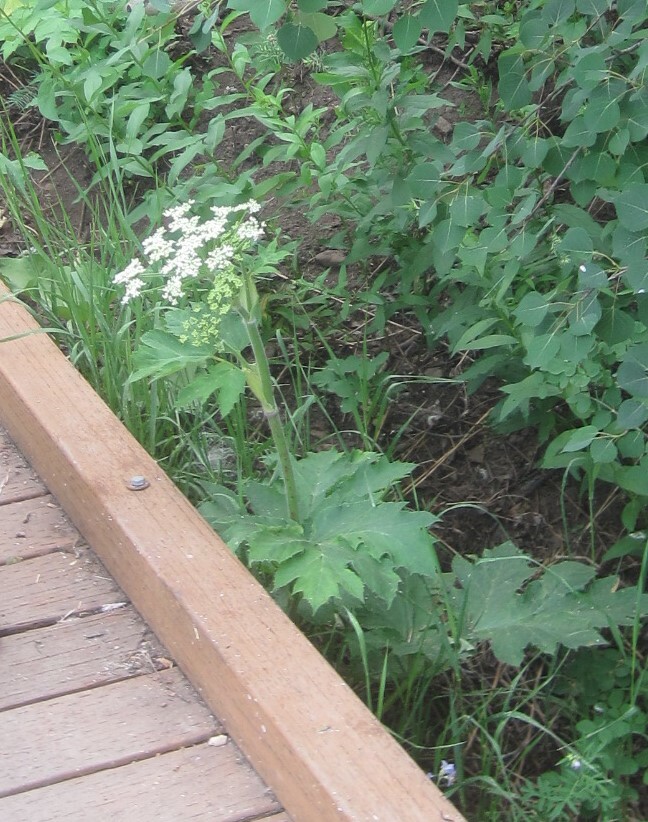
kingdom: Plantae
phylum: Tracheophyta
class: Magnoliopsida
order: Apiales
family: Apiaceae
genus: Heracleum
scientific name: Heracleum maximum
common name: American cow parsnip
